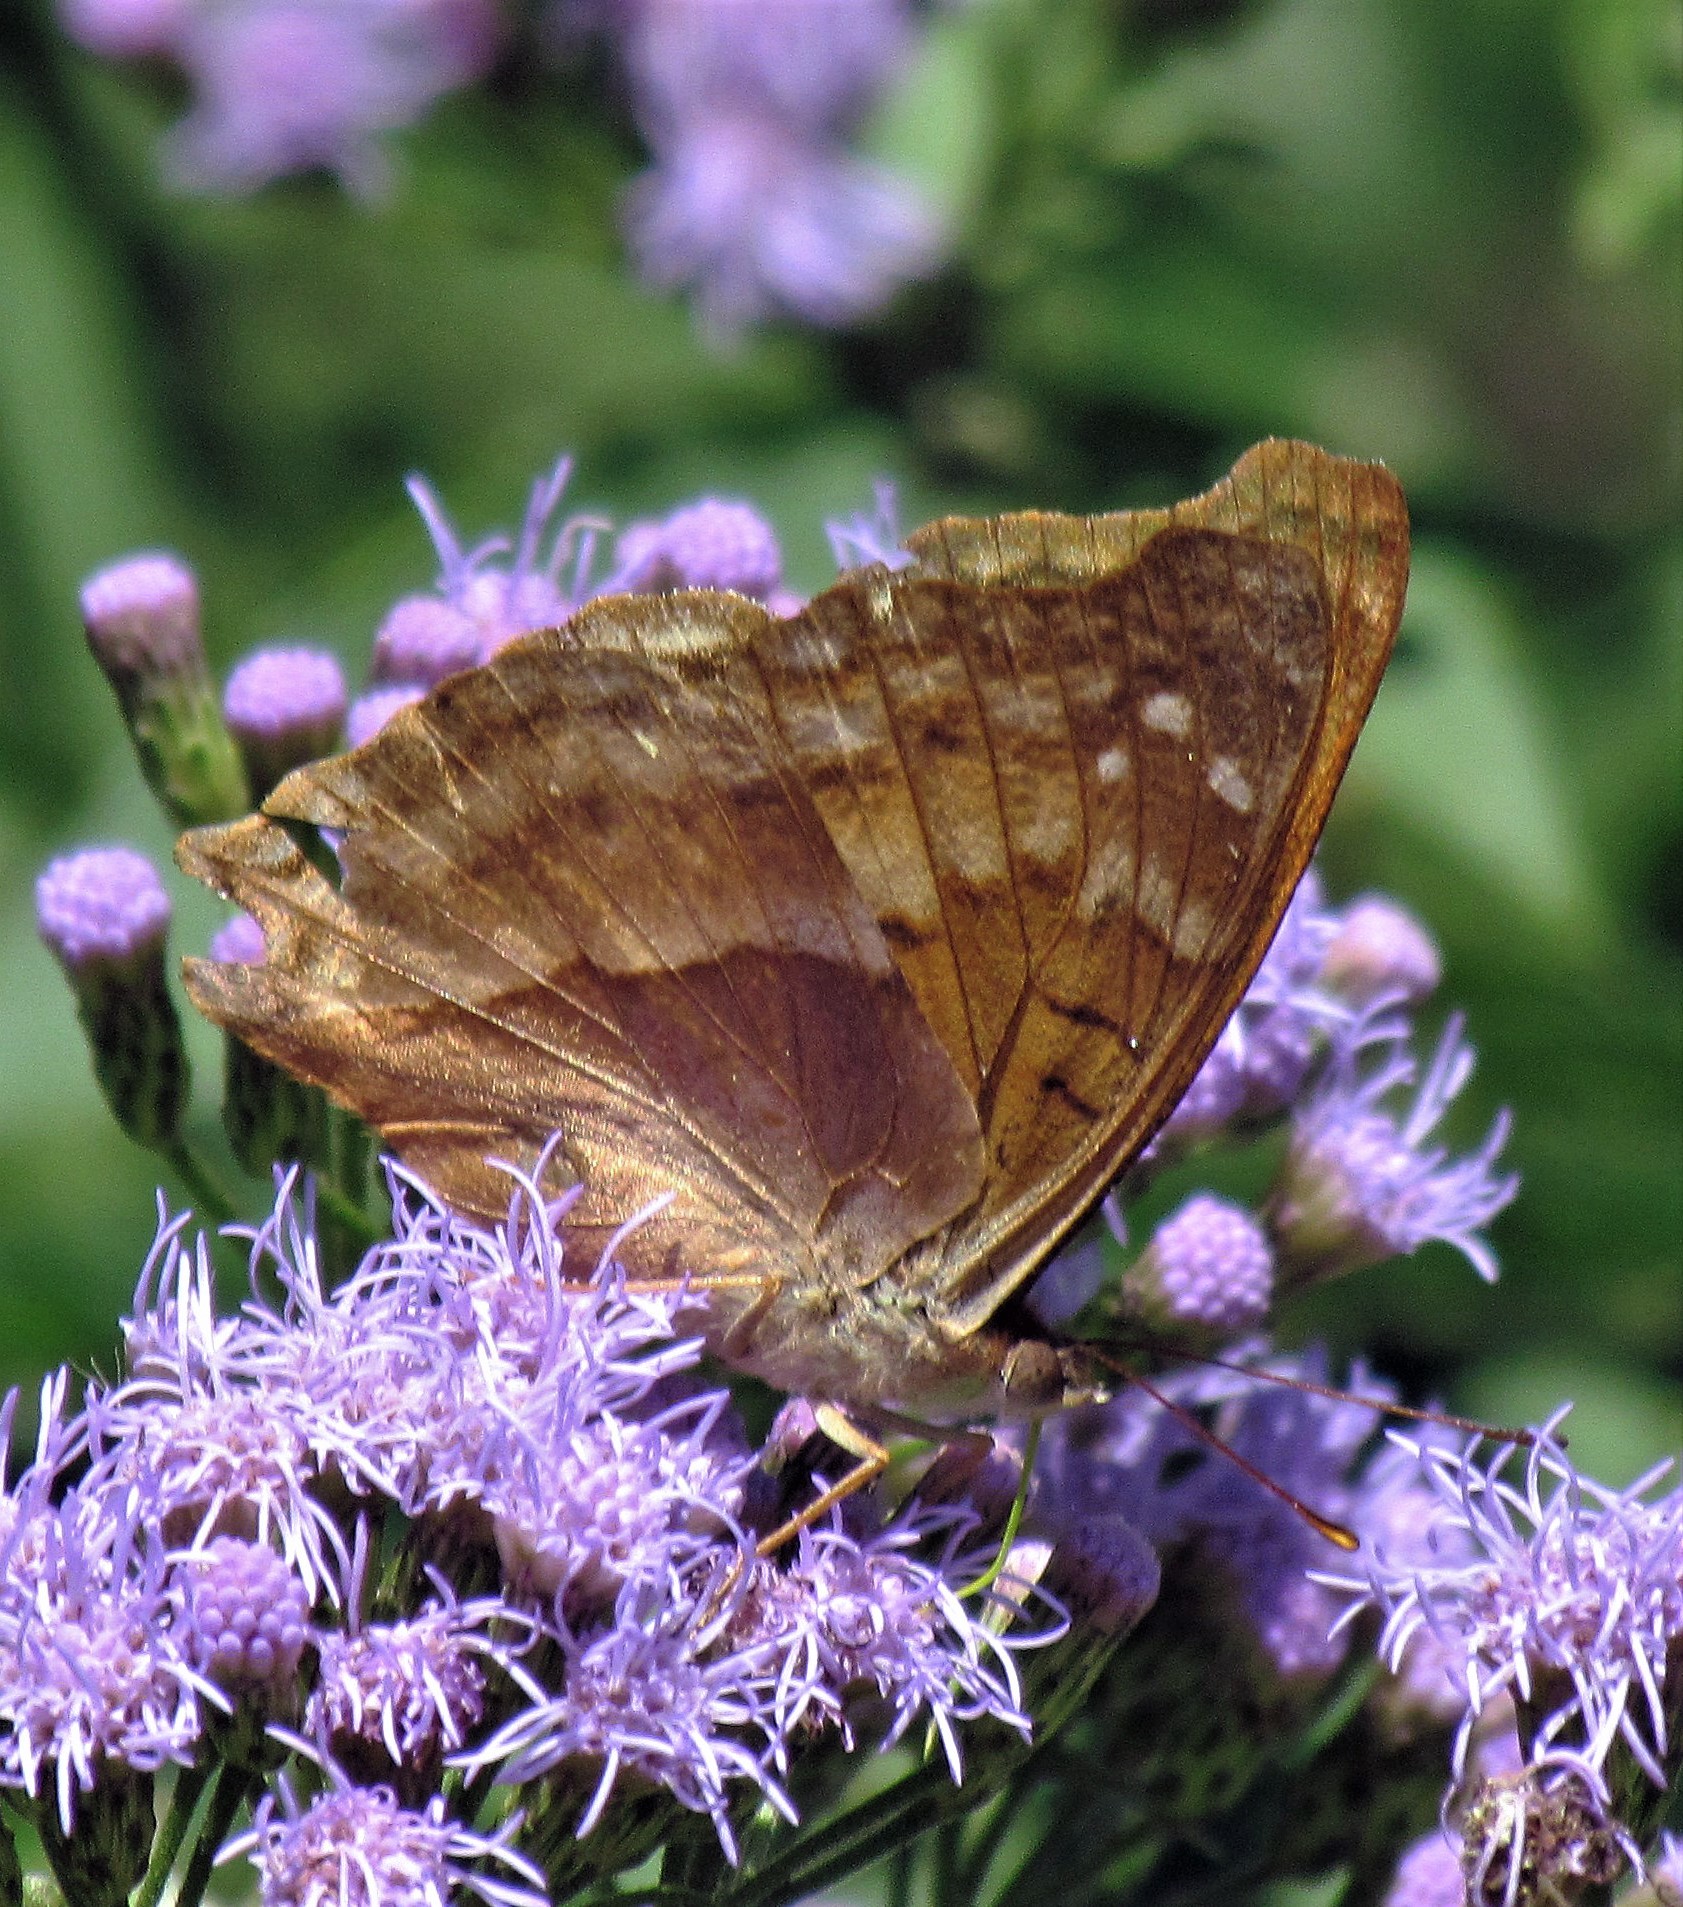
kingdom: Animalia
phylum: Arthropoda
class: Insecta
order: Lepidoptera
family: Nymphalidae
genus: Doxocopa
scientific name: Doxocopa cyane
